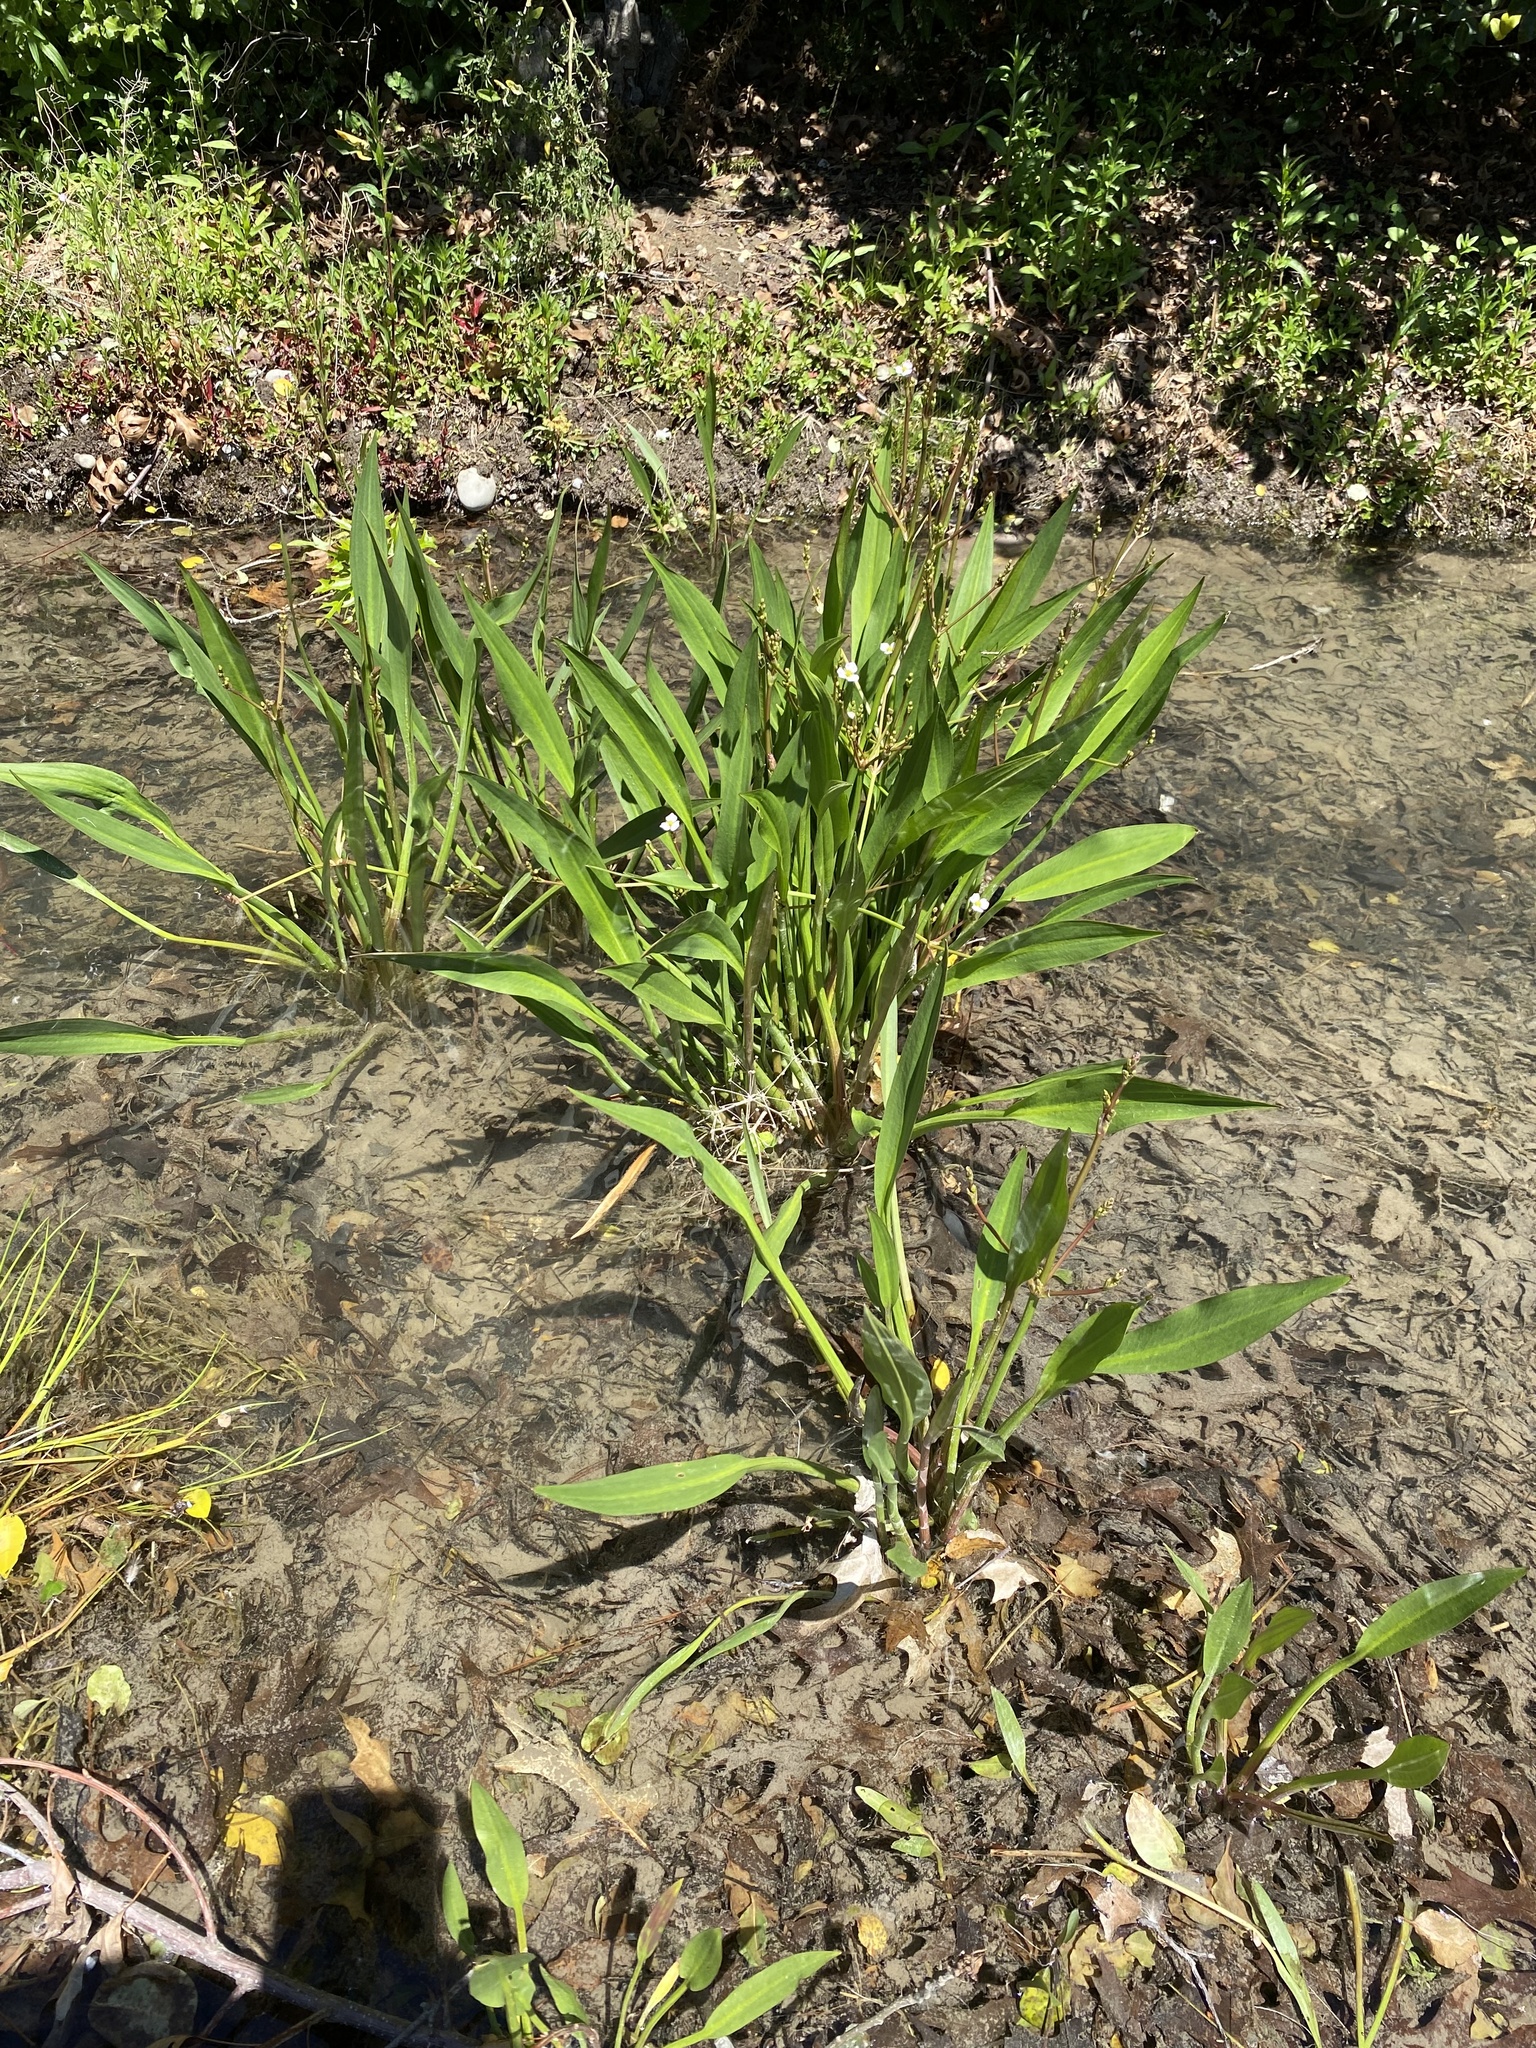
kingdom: Plantae
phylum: Tracheophyta
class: Liliopsida
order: Alismatales
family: Alismataceae
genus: Alisma
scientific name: Alisma lanceolatum
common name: Narrow-leaved water-plantain
